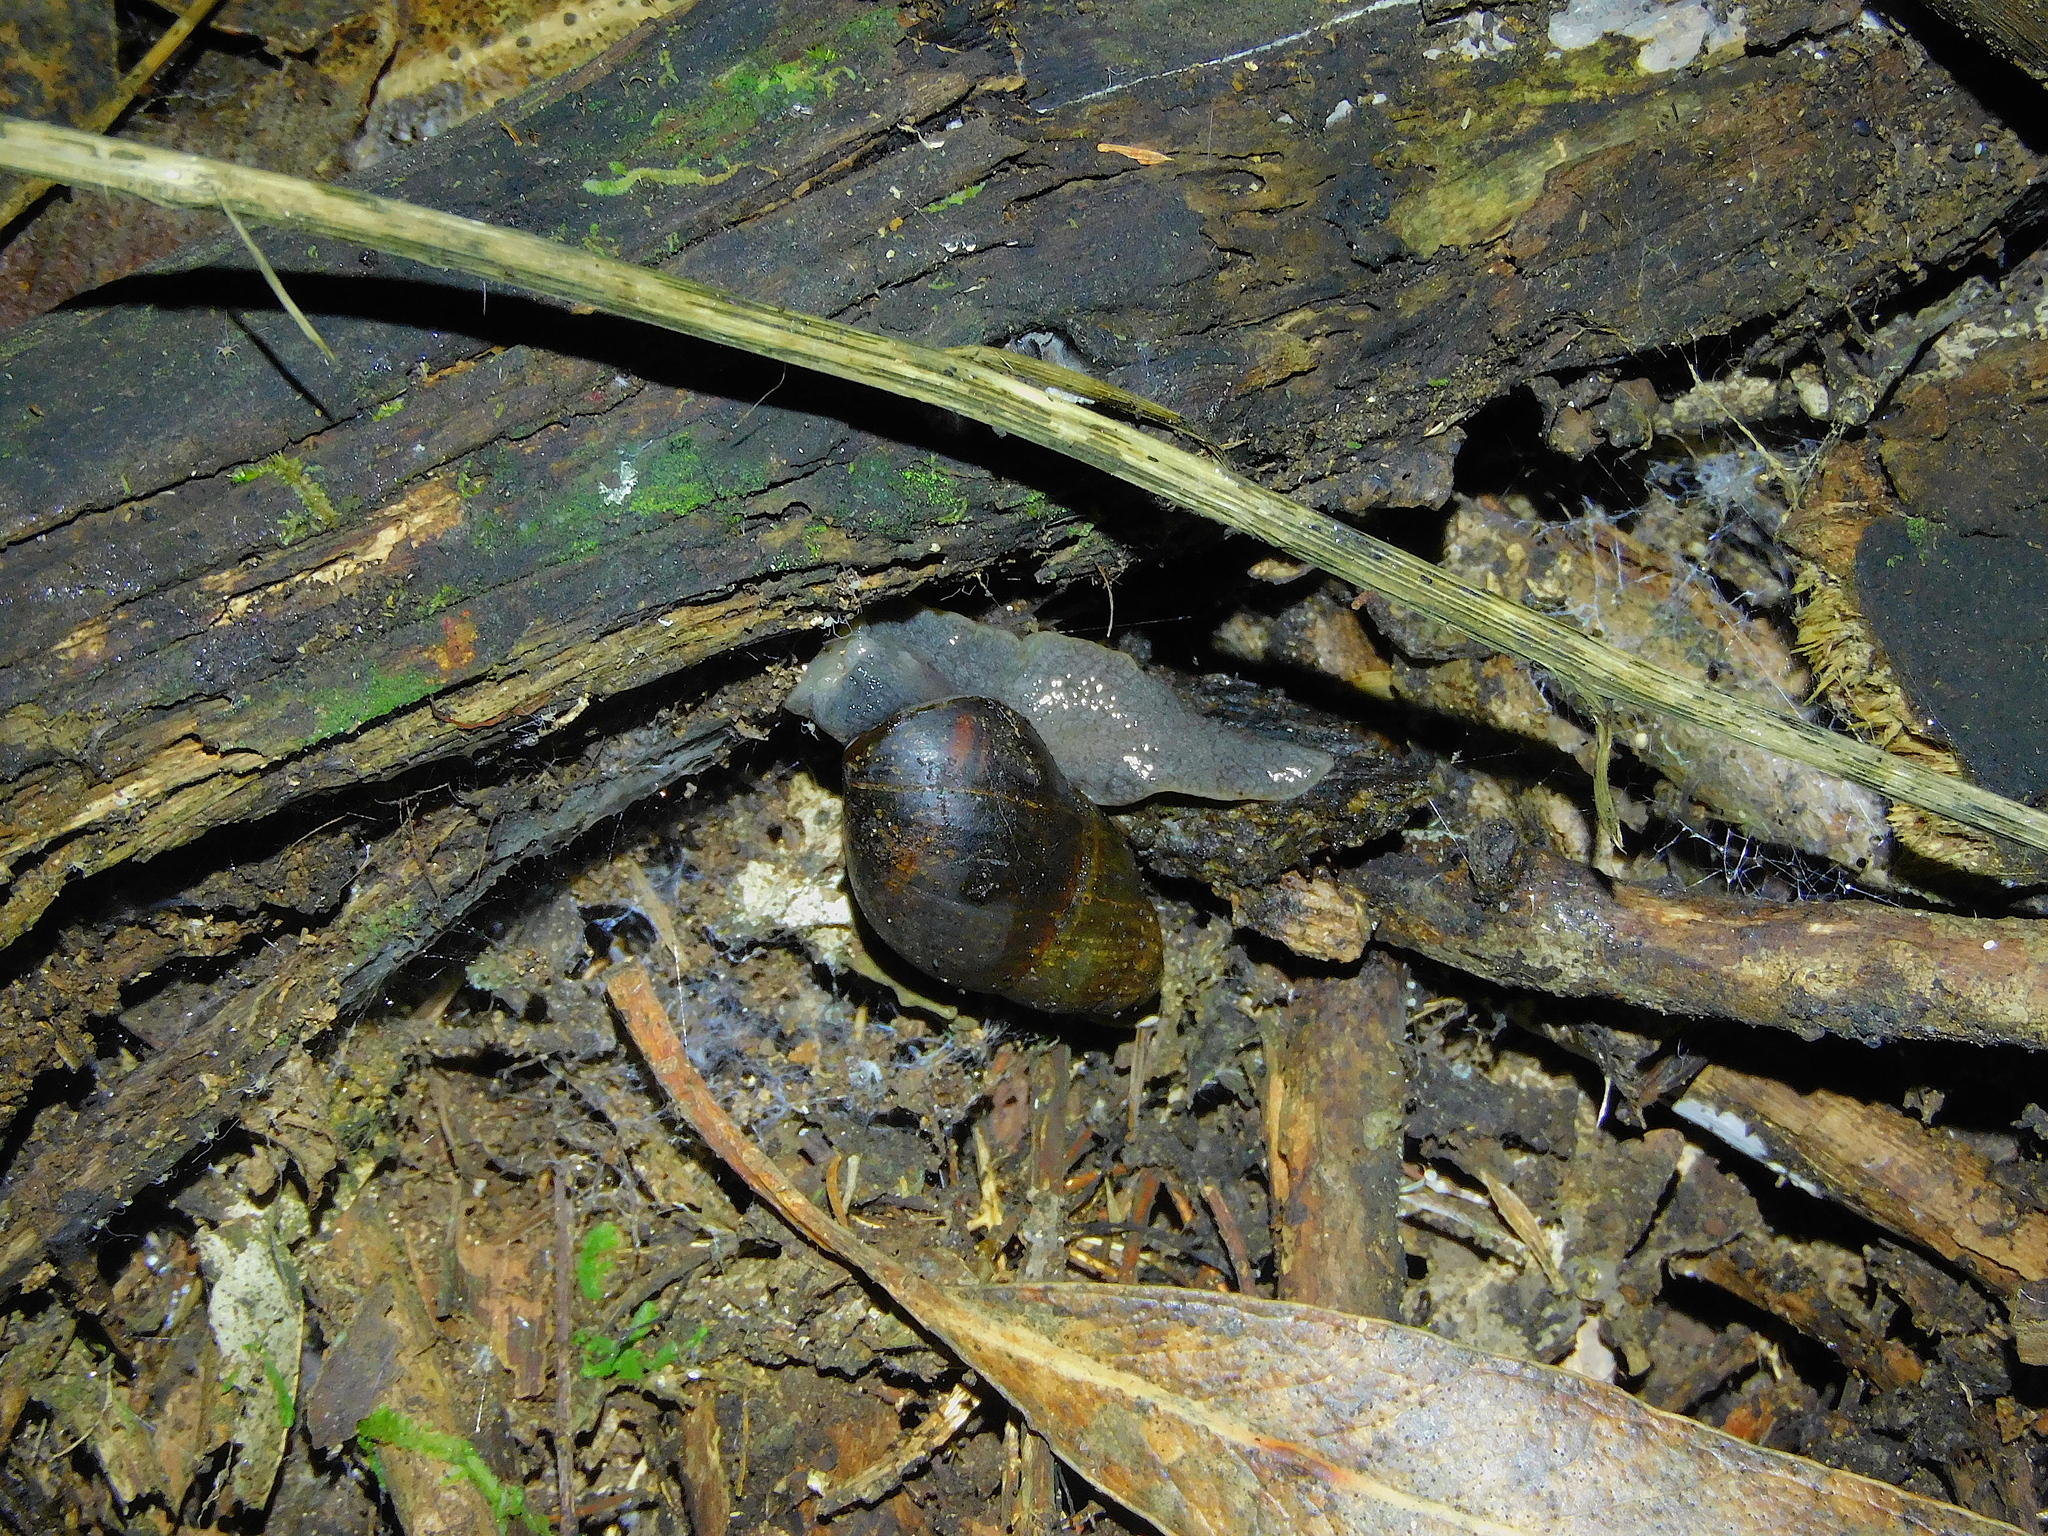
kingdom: Animalia
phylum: Mollusca
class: Gastropoda
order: Stylommatophora
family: Caryodidae
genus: Caryodes
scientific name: Caryodes dufresnii
